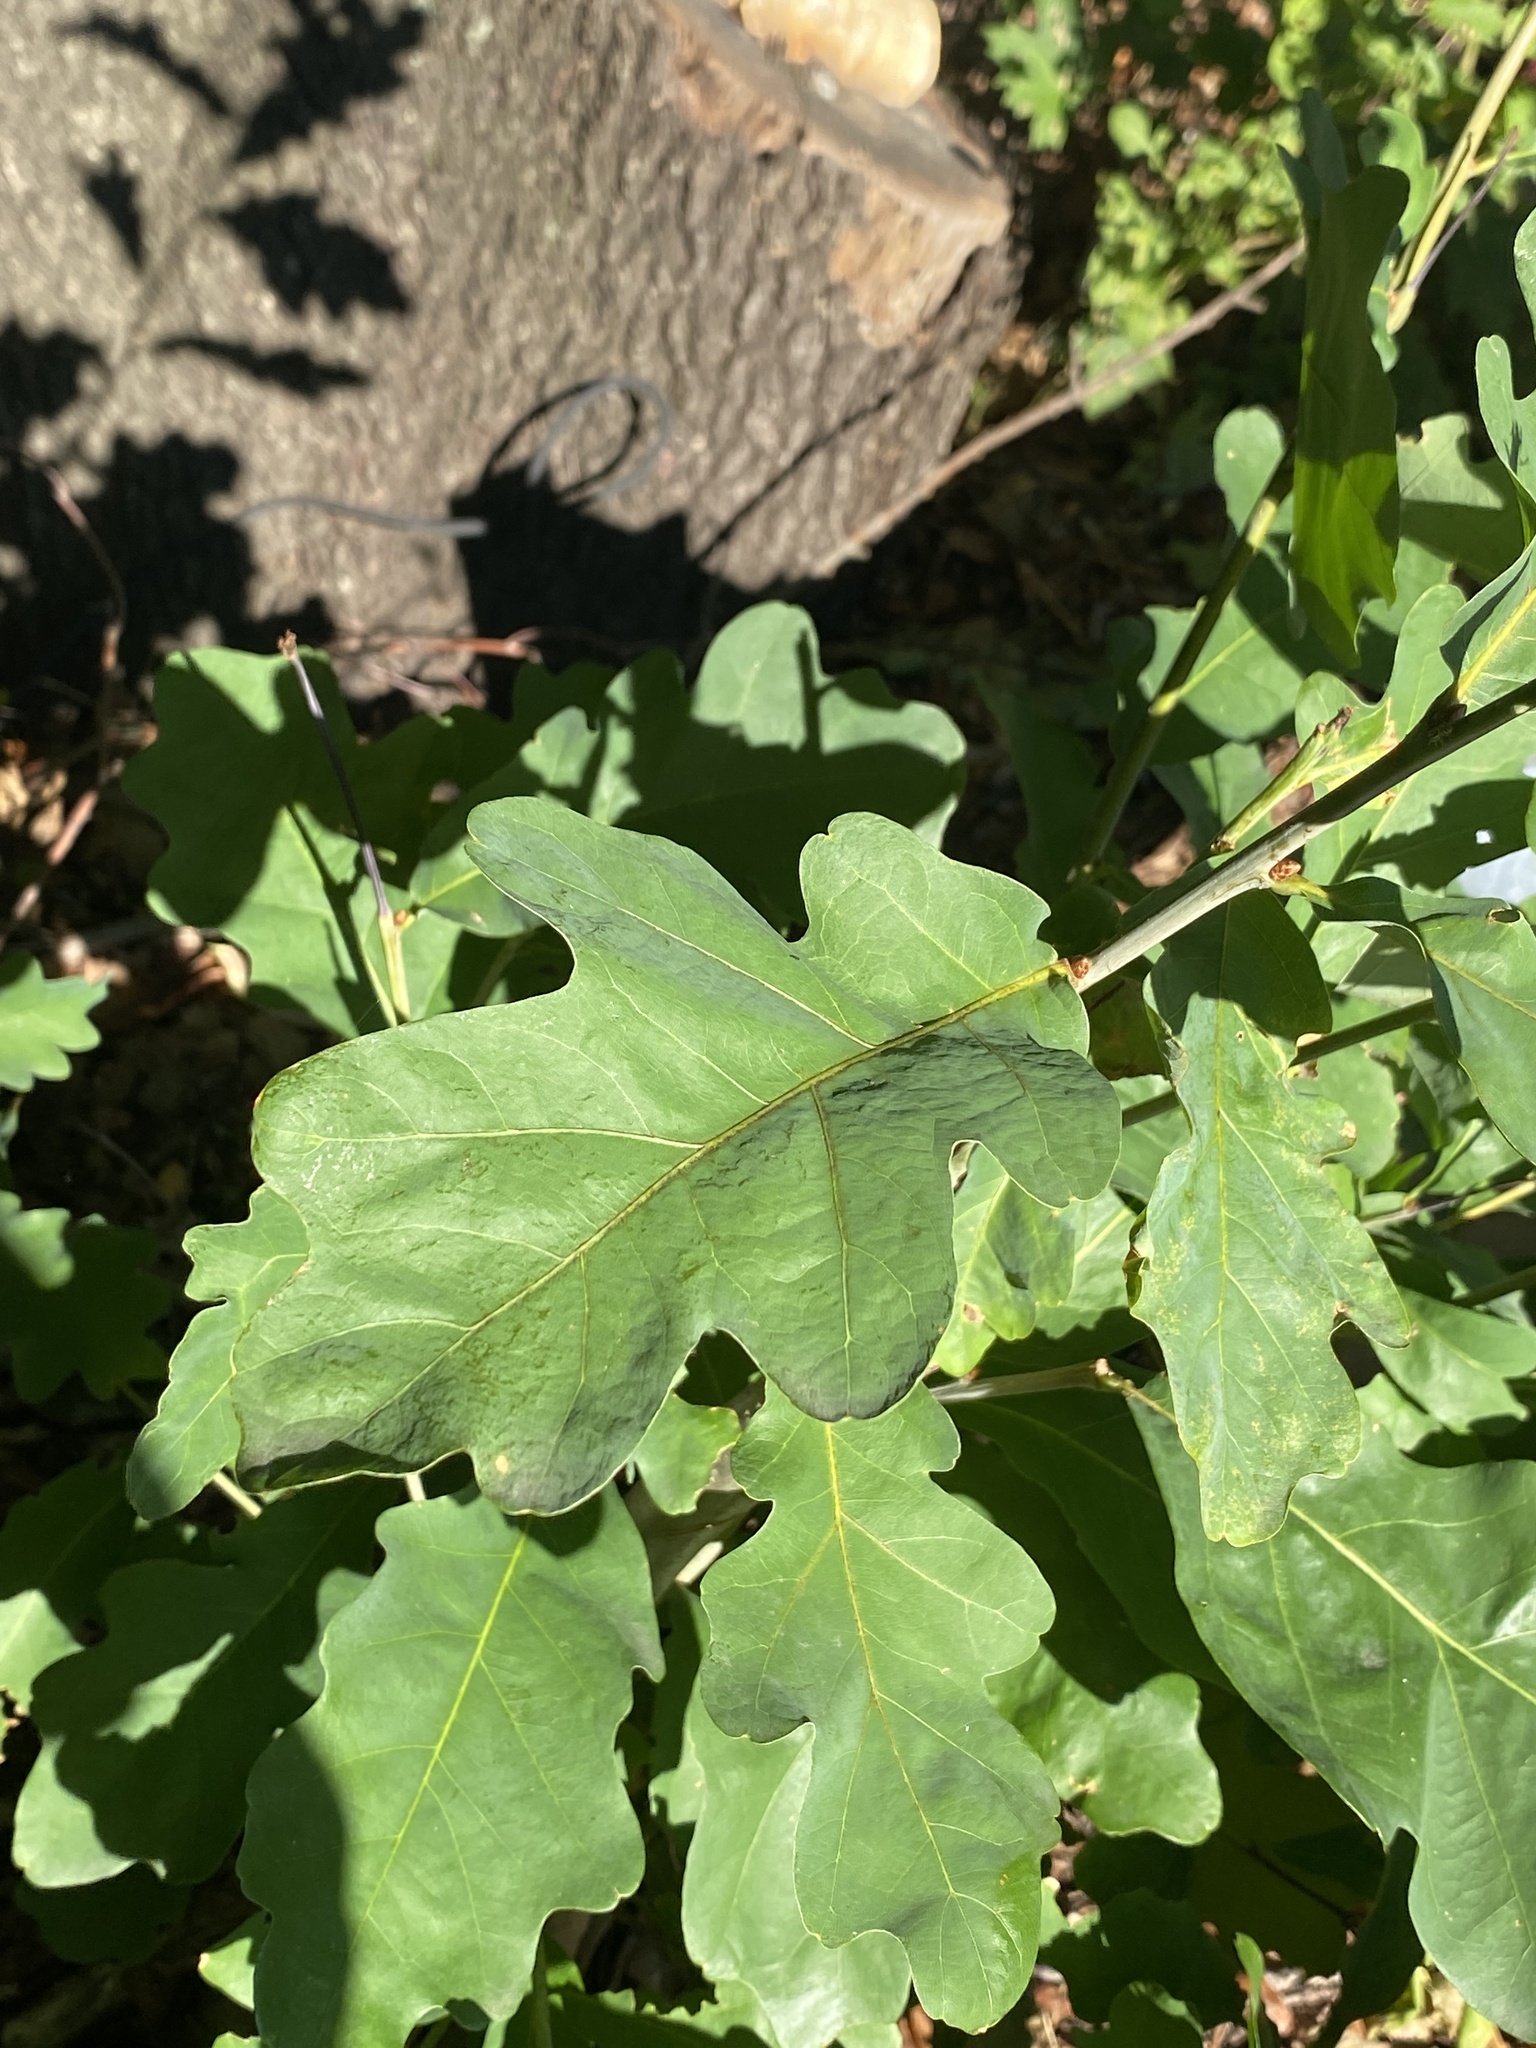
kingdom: Plantae
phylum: Tracheophyta
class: Magnoliopsida
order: Fagales
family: Fagaceae
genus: Quercus
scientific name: Quercus alba
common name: White oak
